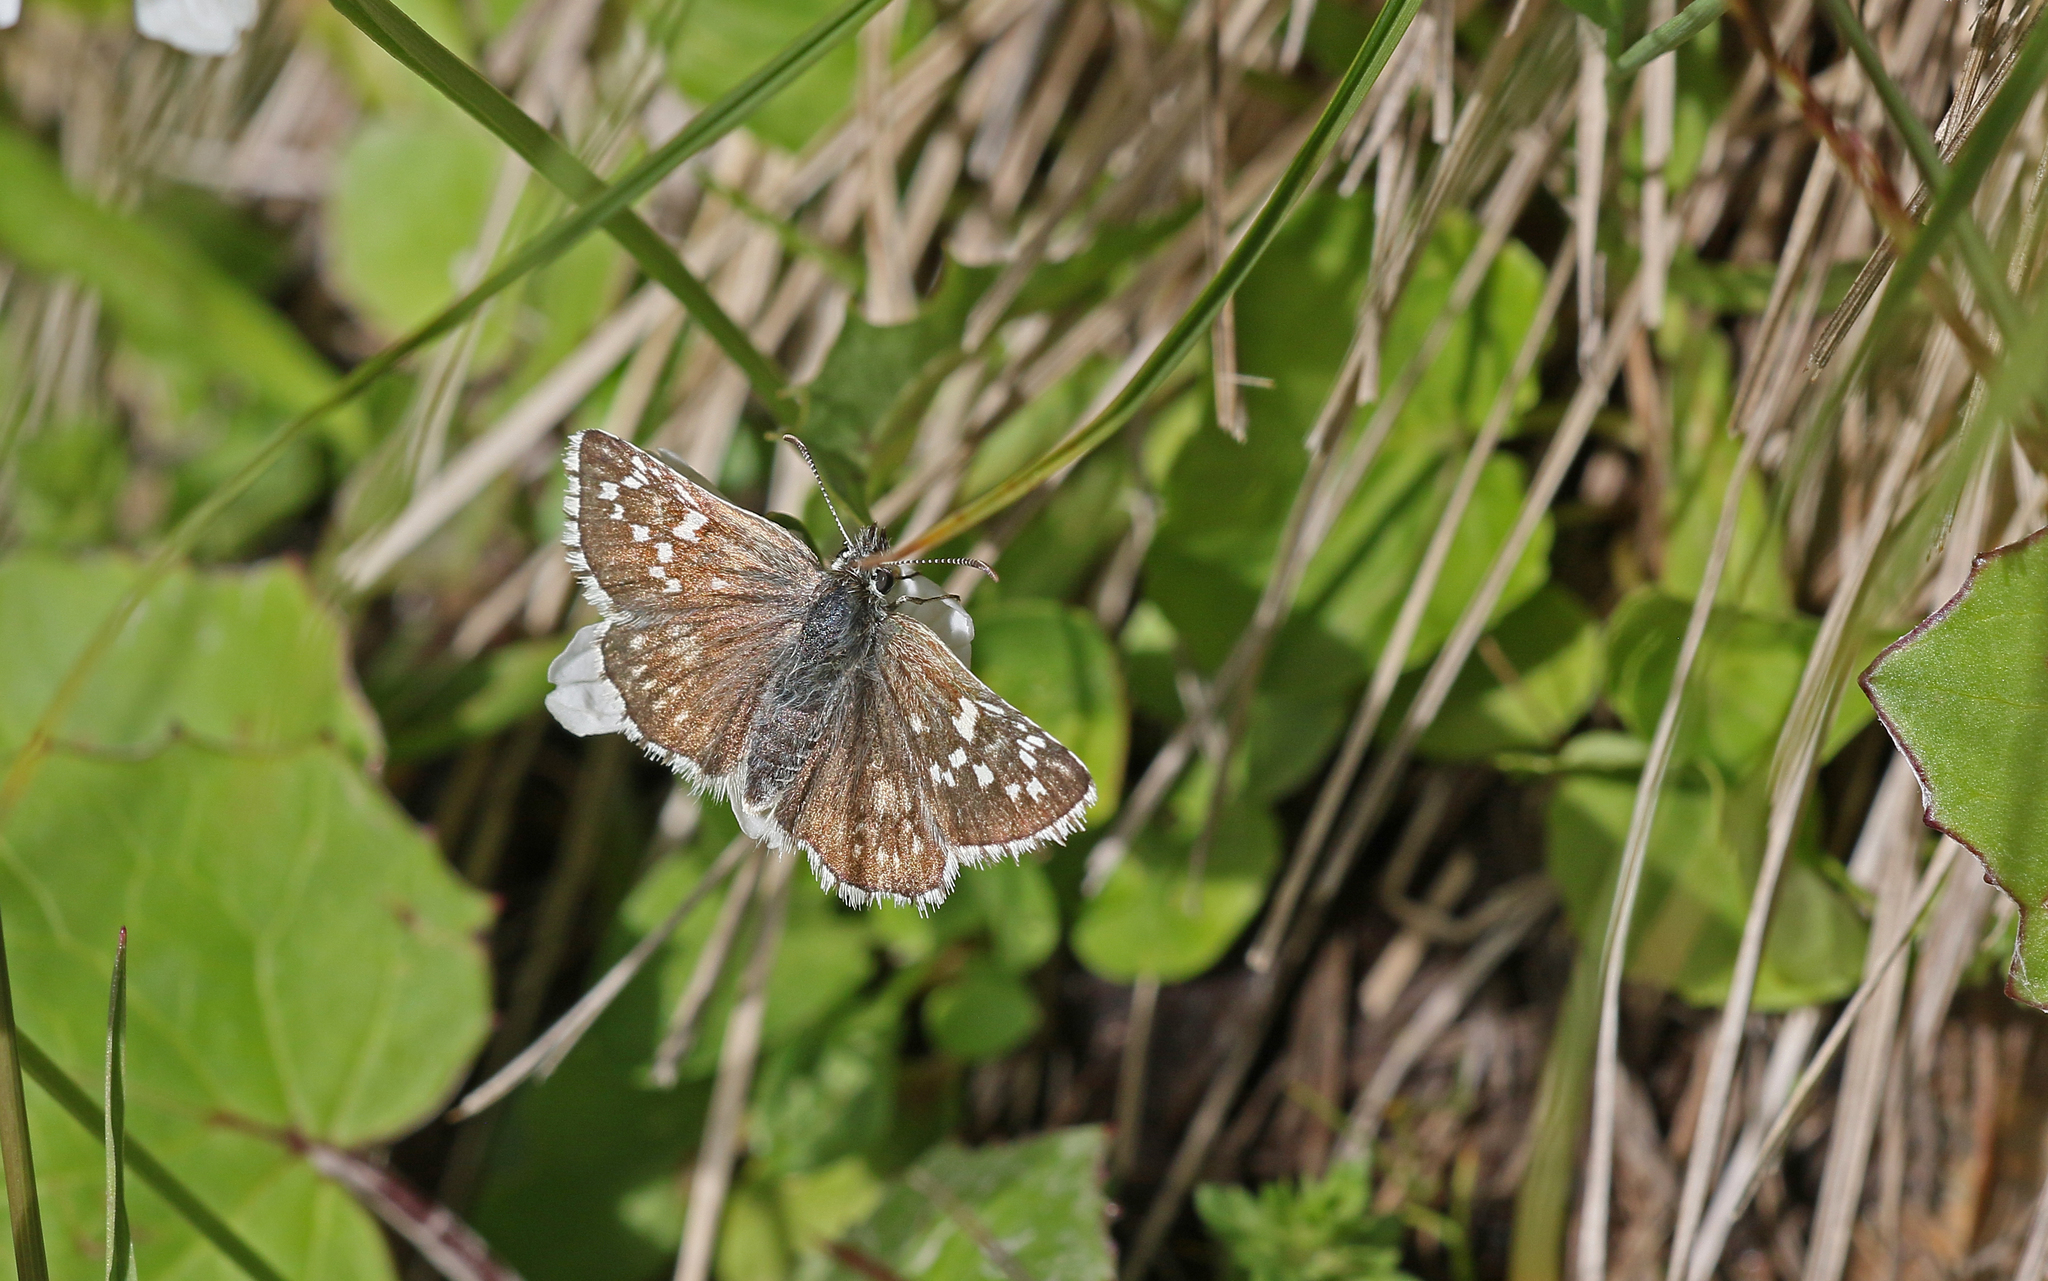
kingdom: Animalia
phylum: Arthropoda
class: Insecta
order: Lepidoptera
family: Hesperiidae
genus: Pyrgus
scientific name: Pyrgus fritillarius
